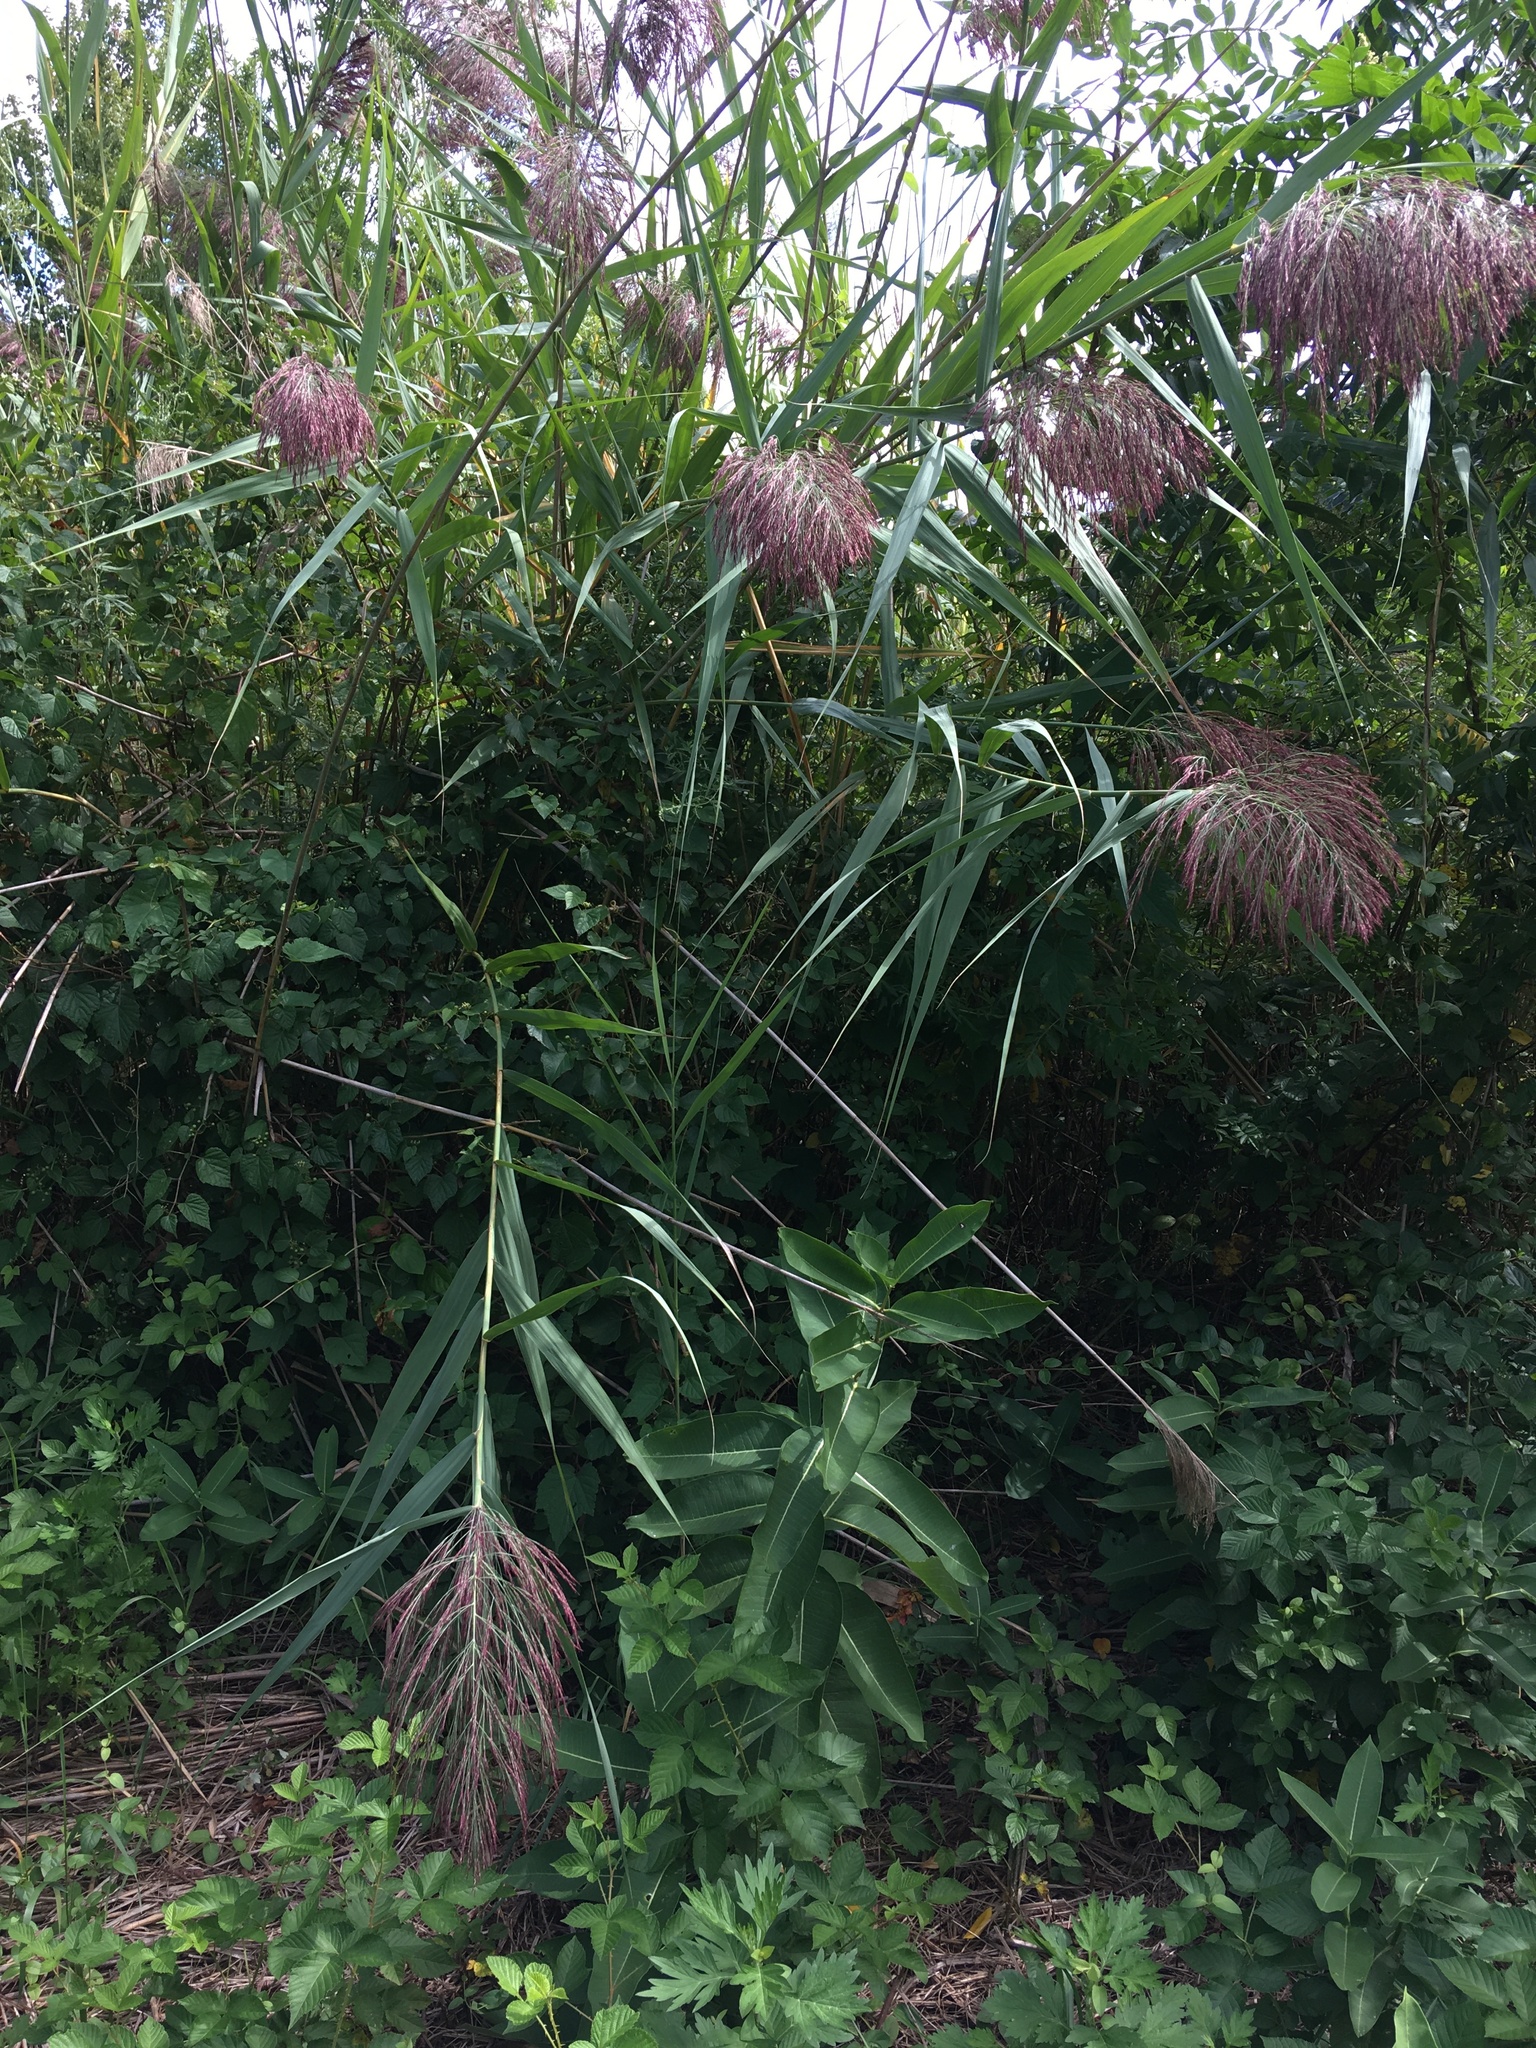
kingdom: Plantae
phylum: Tracheophyta
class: Liliopsida
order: Poales
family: Poaceae
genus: Phragmites
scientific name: Phragmites australis
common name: Common reed
